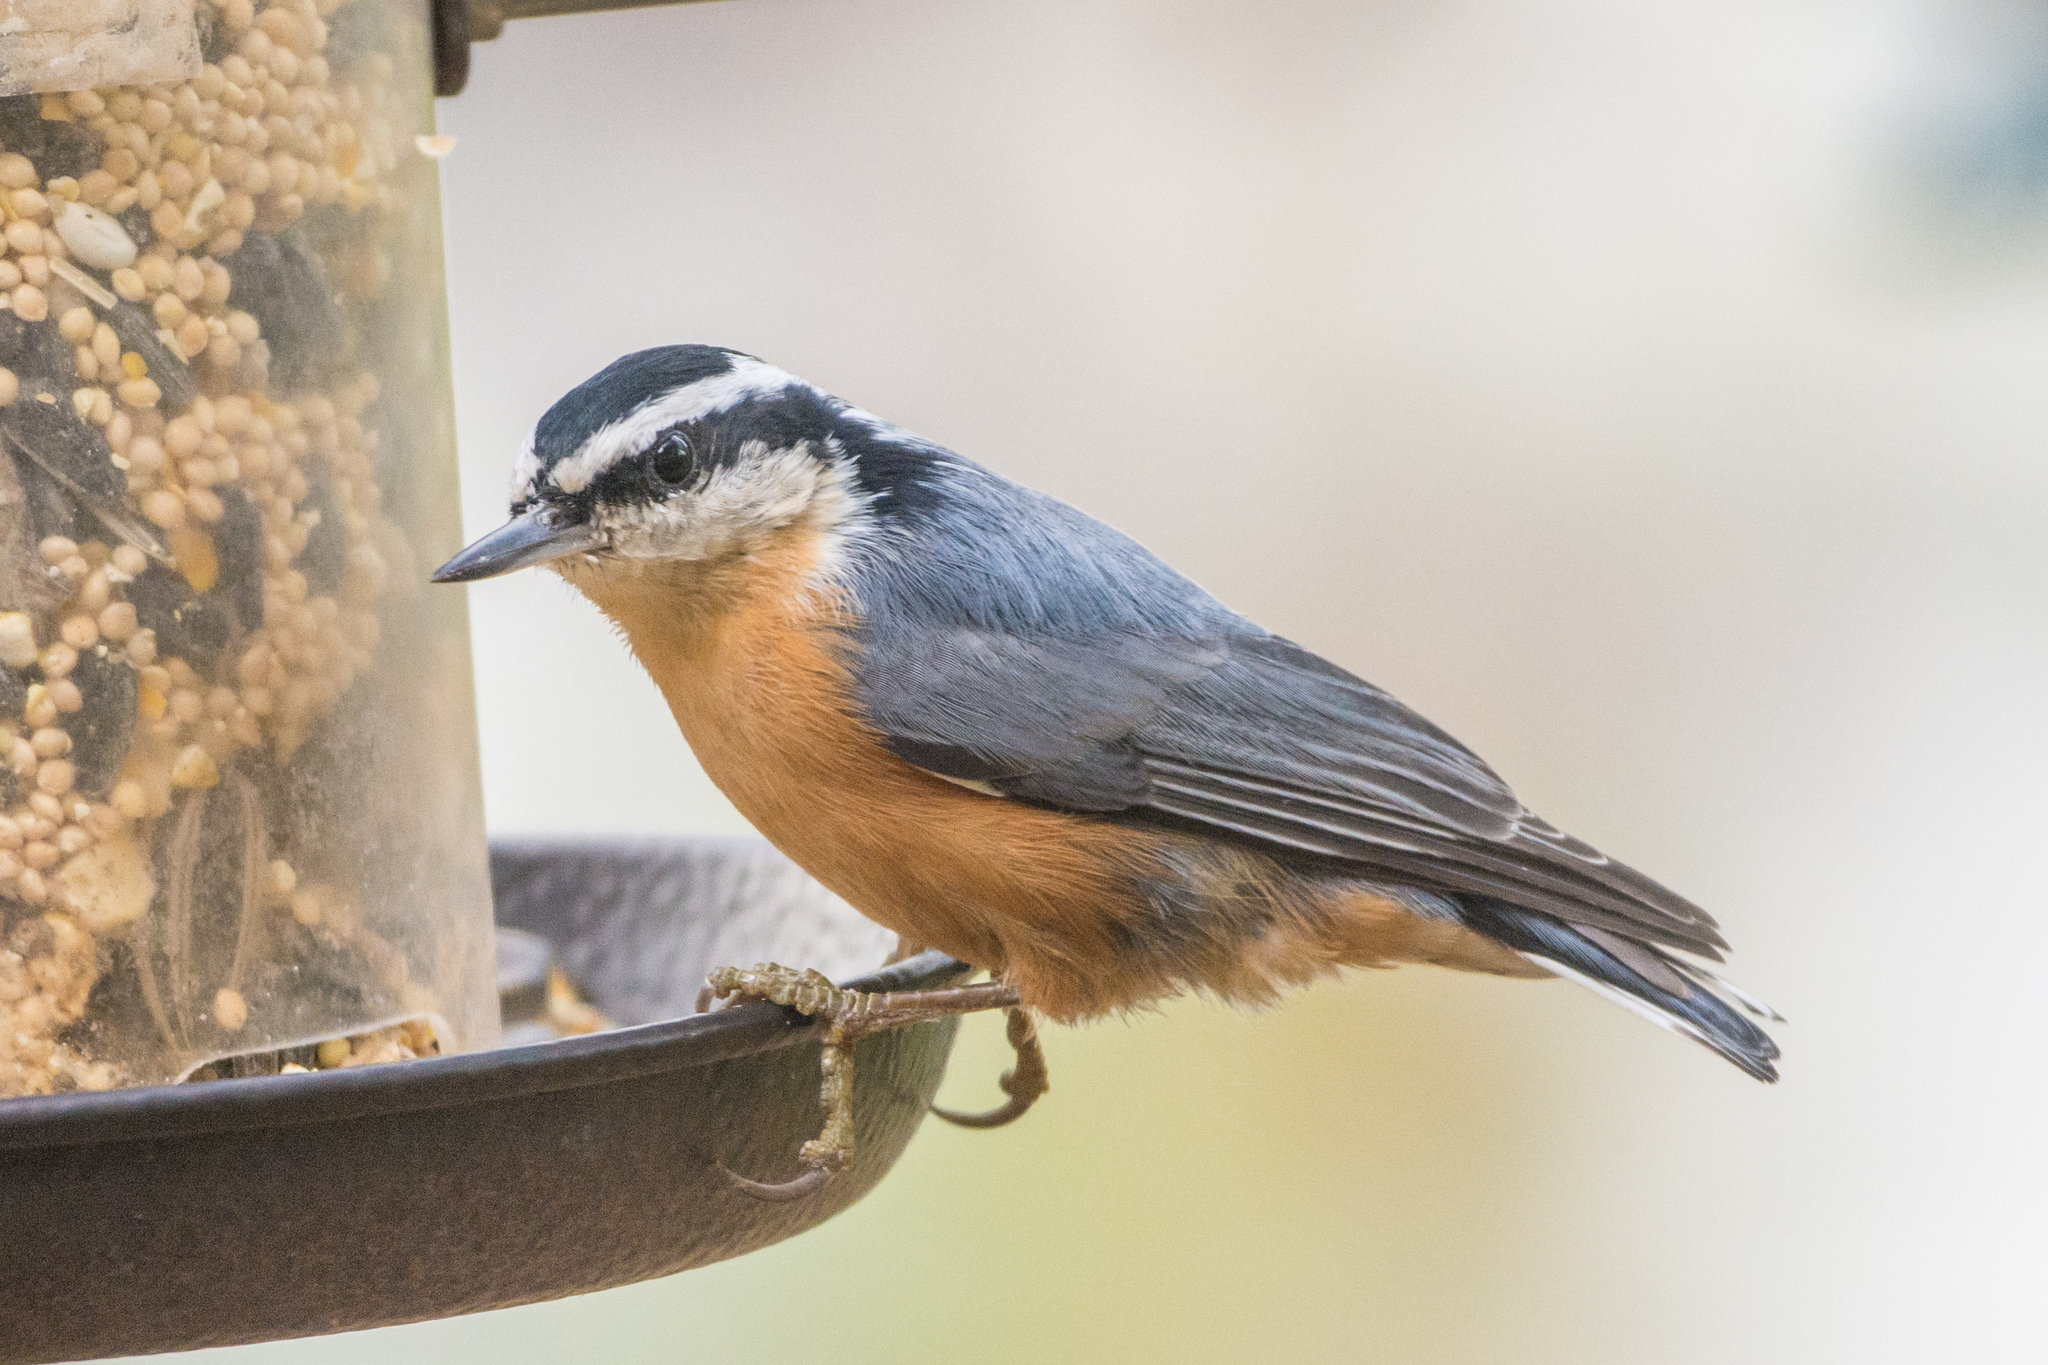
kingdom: Animalia
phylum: Chordata
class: Aves
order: Passeriformes
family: Sittidae
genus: Sitta
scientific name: Sitta canadensis
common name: Red-breasted nuthatch
